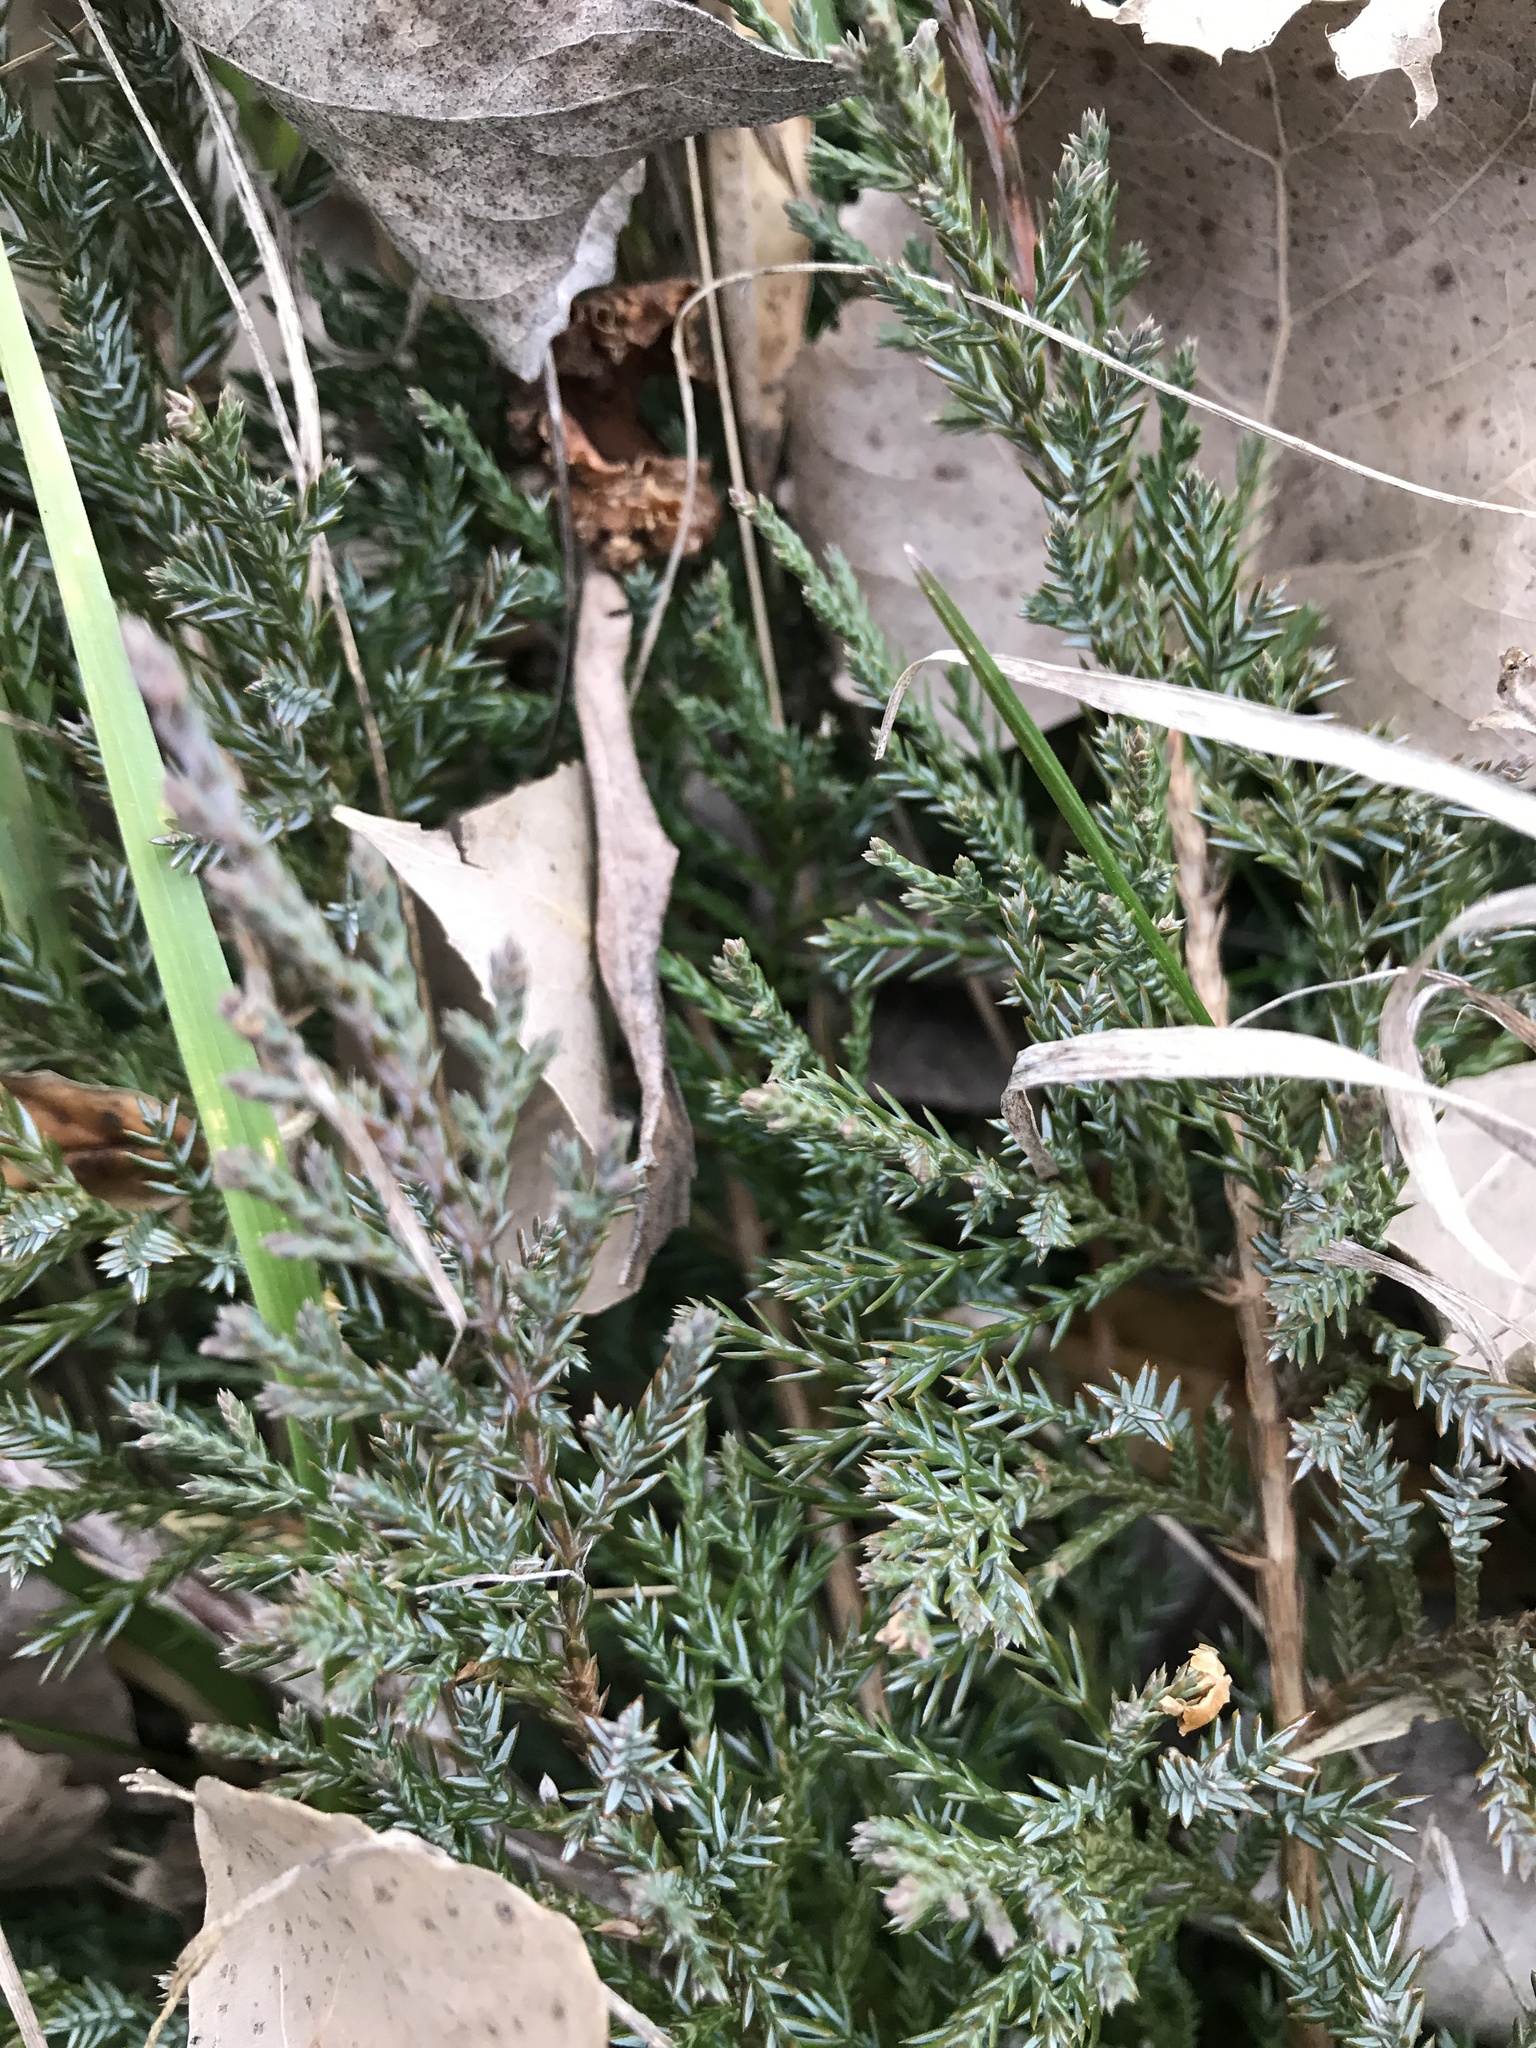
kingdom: Plantae
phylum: Tracheophyta
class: Pinopsida
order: Pinales
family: Cupressaceae
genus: Juniperus
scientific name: Juniperus horizontalis
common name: Creeping juniper
